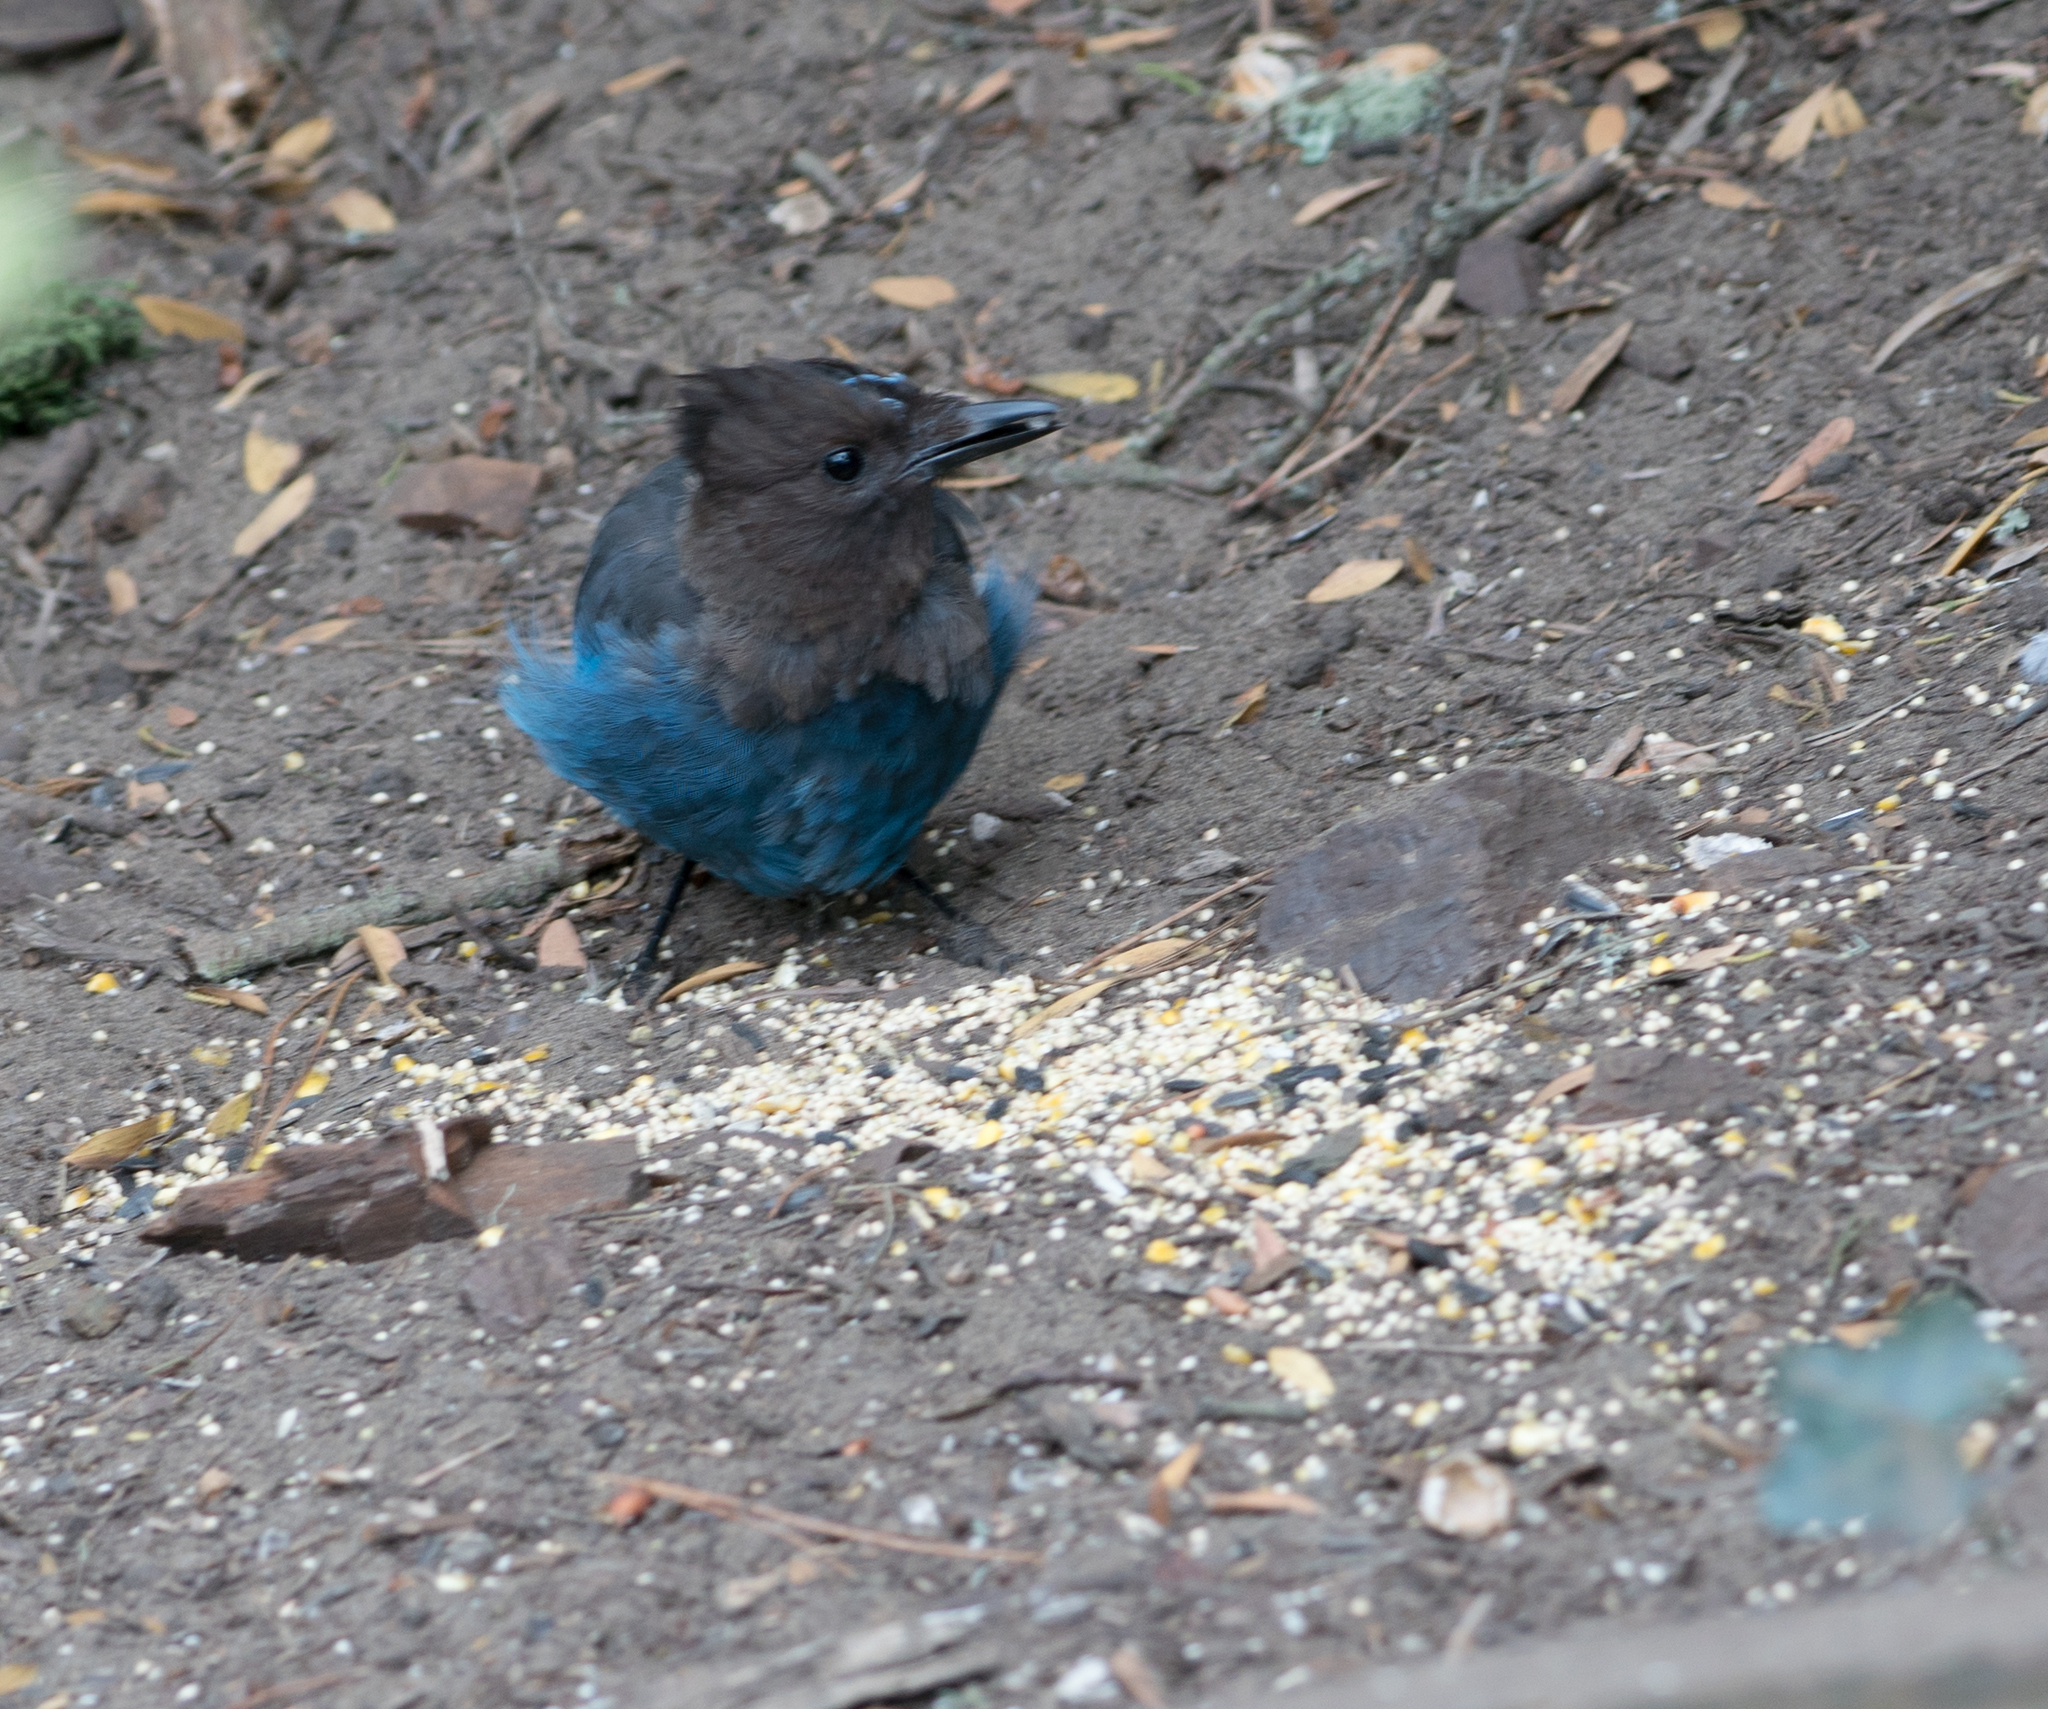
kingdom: Animalia
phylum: Chordata
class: Aves
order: Passeriformes
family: Corvidae
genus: Cyanocitta
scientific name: Cyanocitta stelleri
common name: Steller's jay
